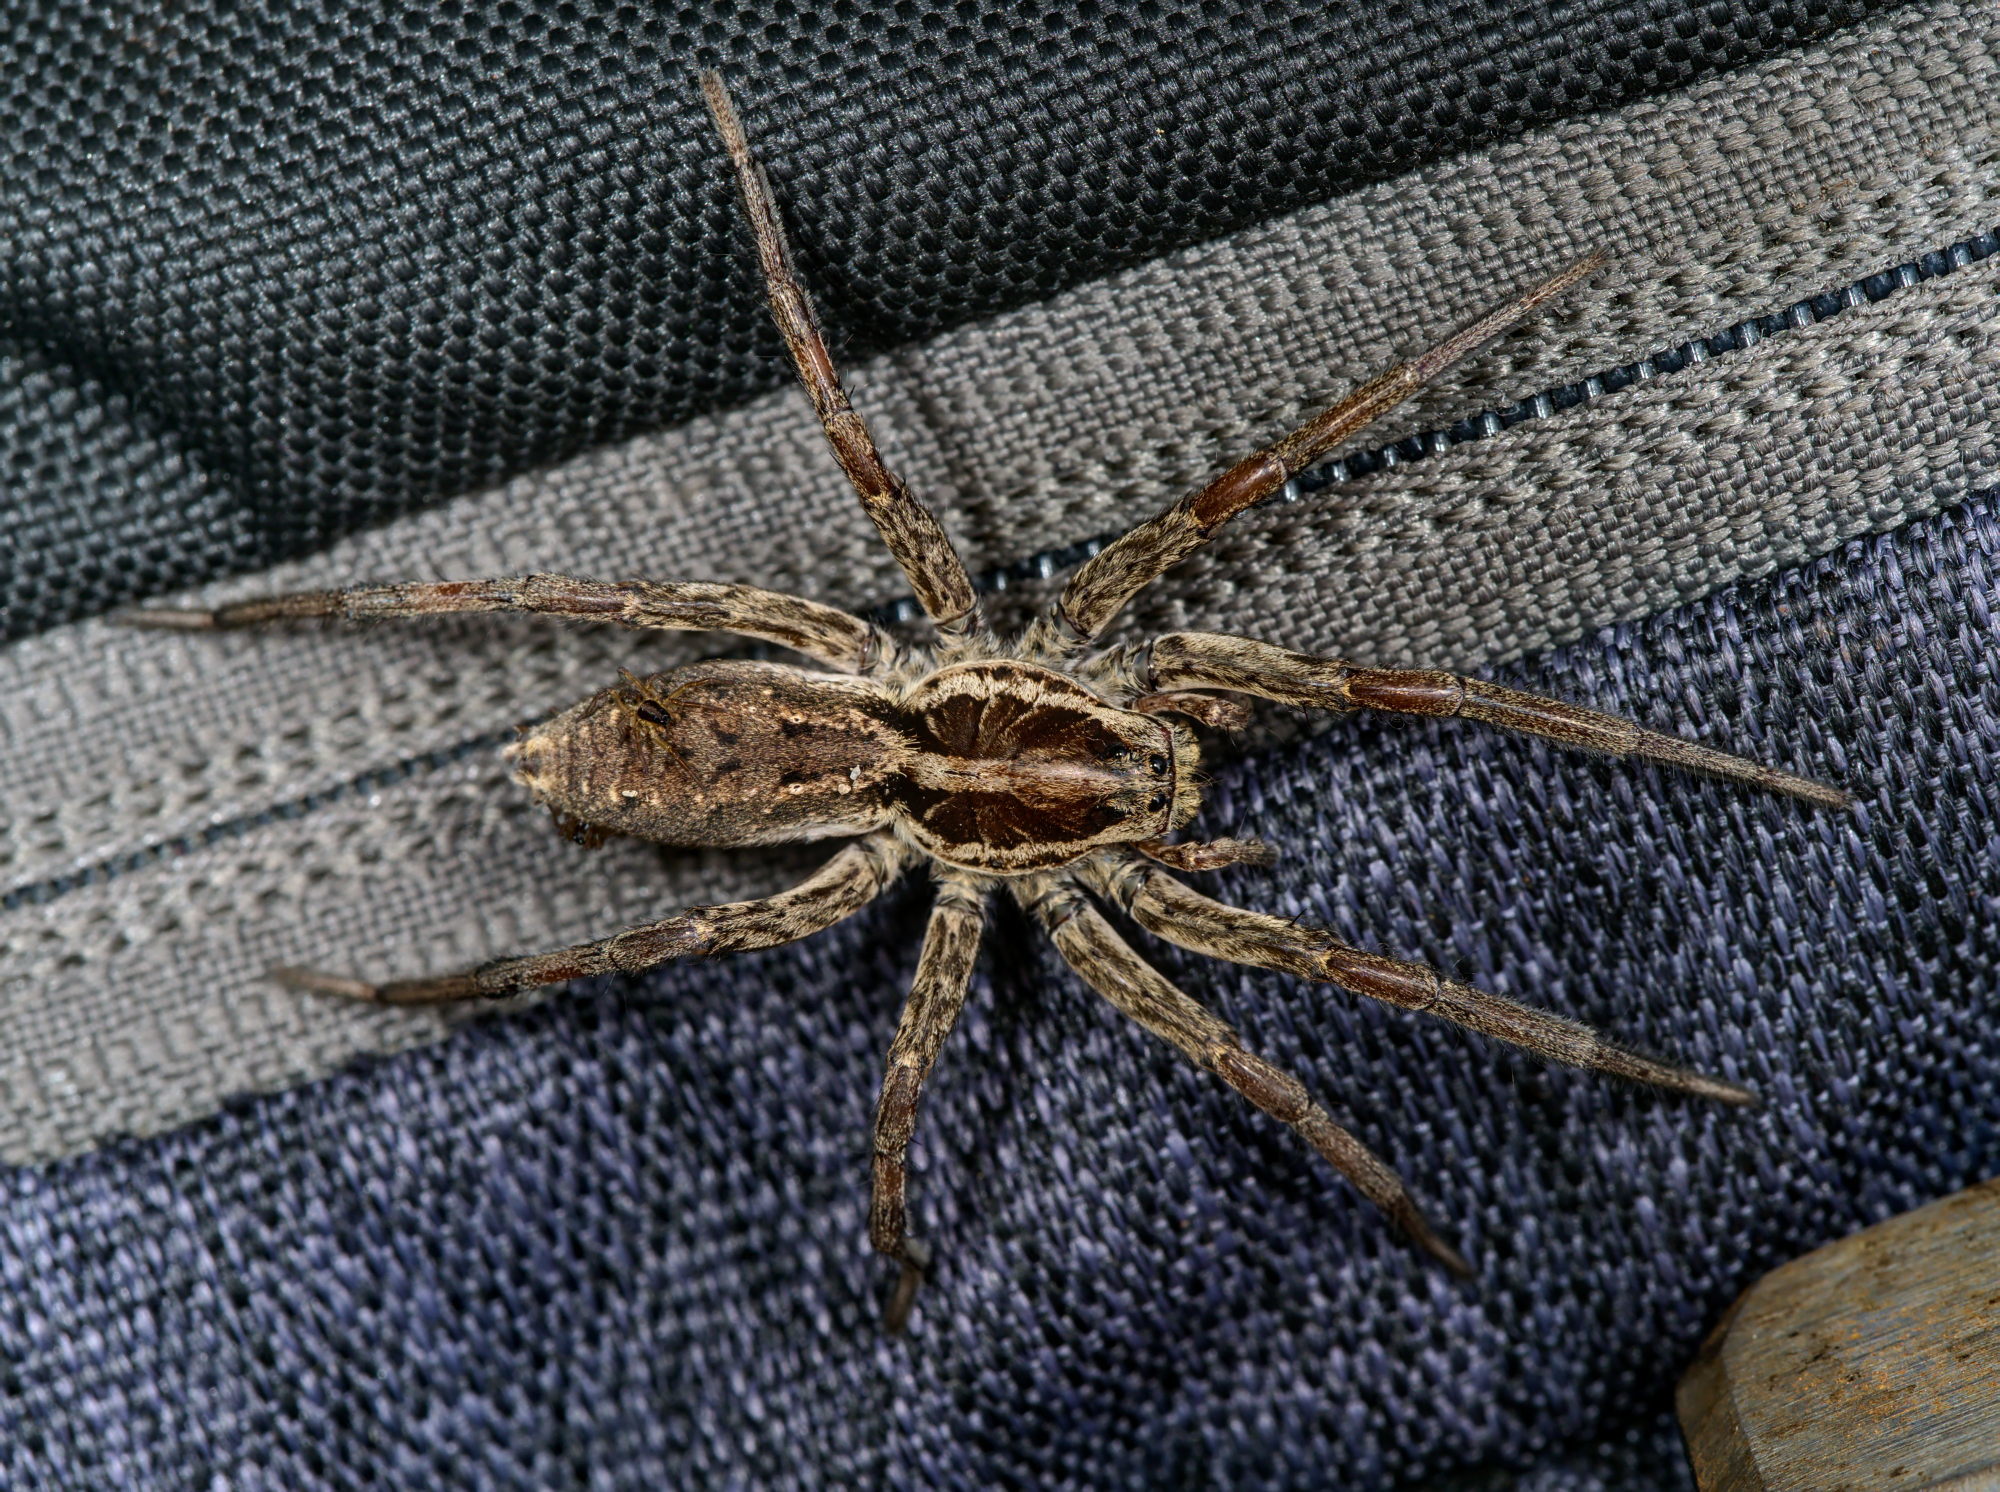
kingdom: Animalia
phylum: Arthropoda
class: Arachnida
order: Araneae
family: Lycosidae
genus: Hogna
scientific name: Hogna radiata
